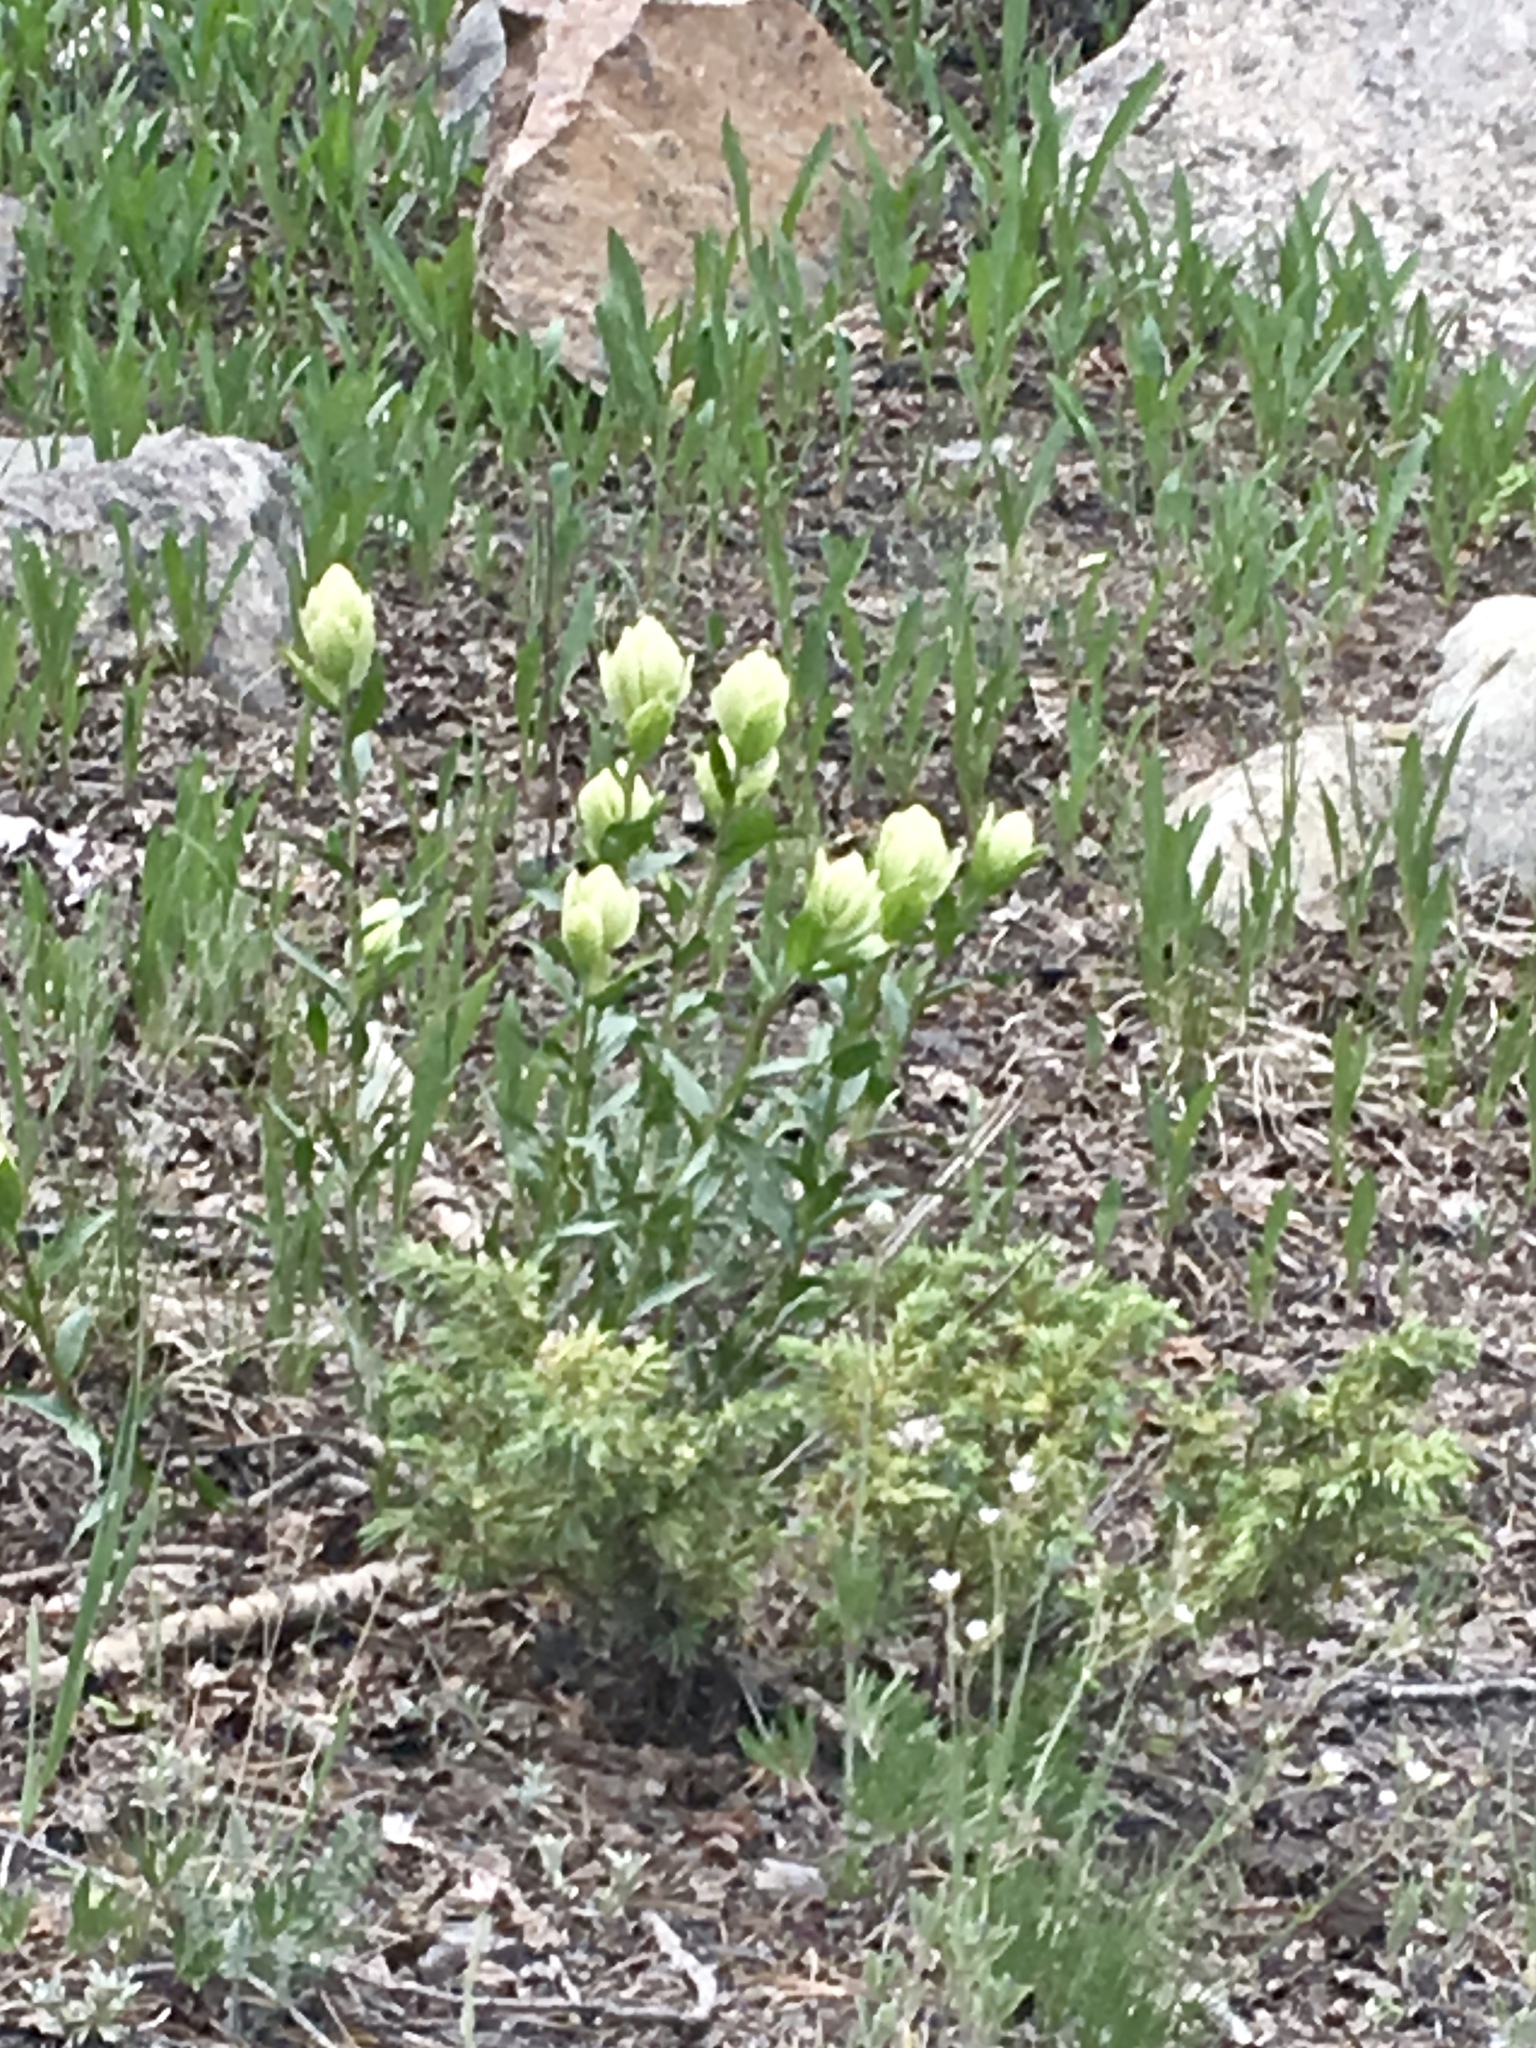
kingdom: Plantae
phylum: Tracheophyta
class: Magnoliopsida
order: Lamiales
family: Orobanchaceae
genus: Castilleja
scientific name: Castilleja septentrionalis
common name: Northeastern paintbrush
